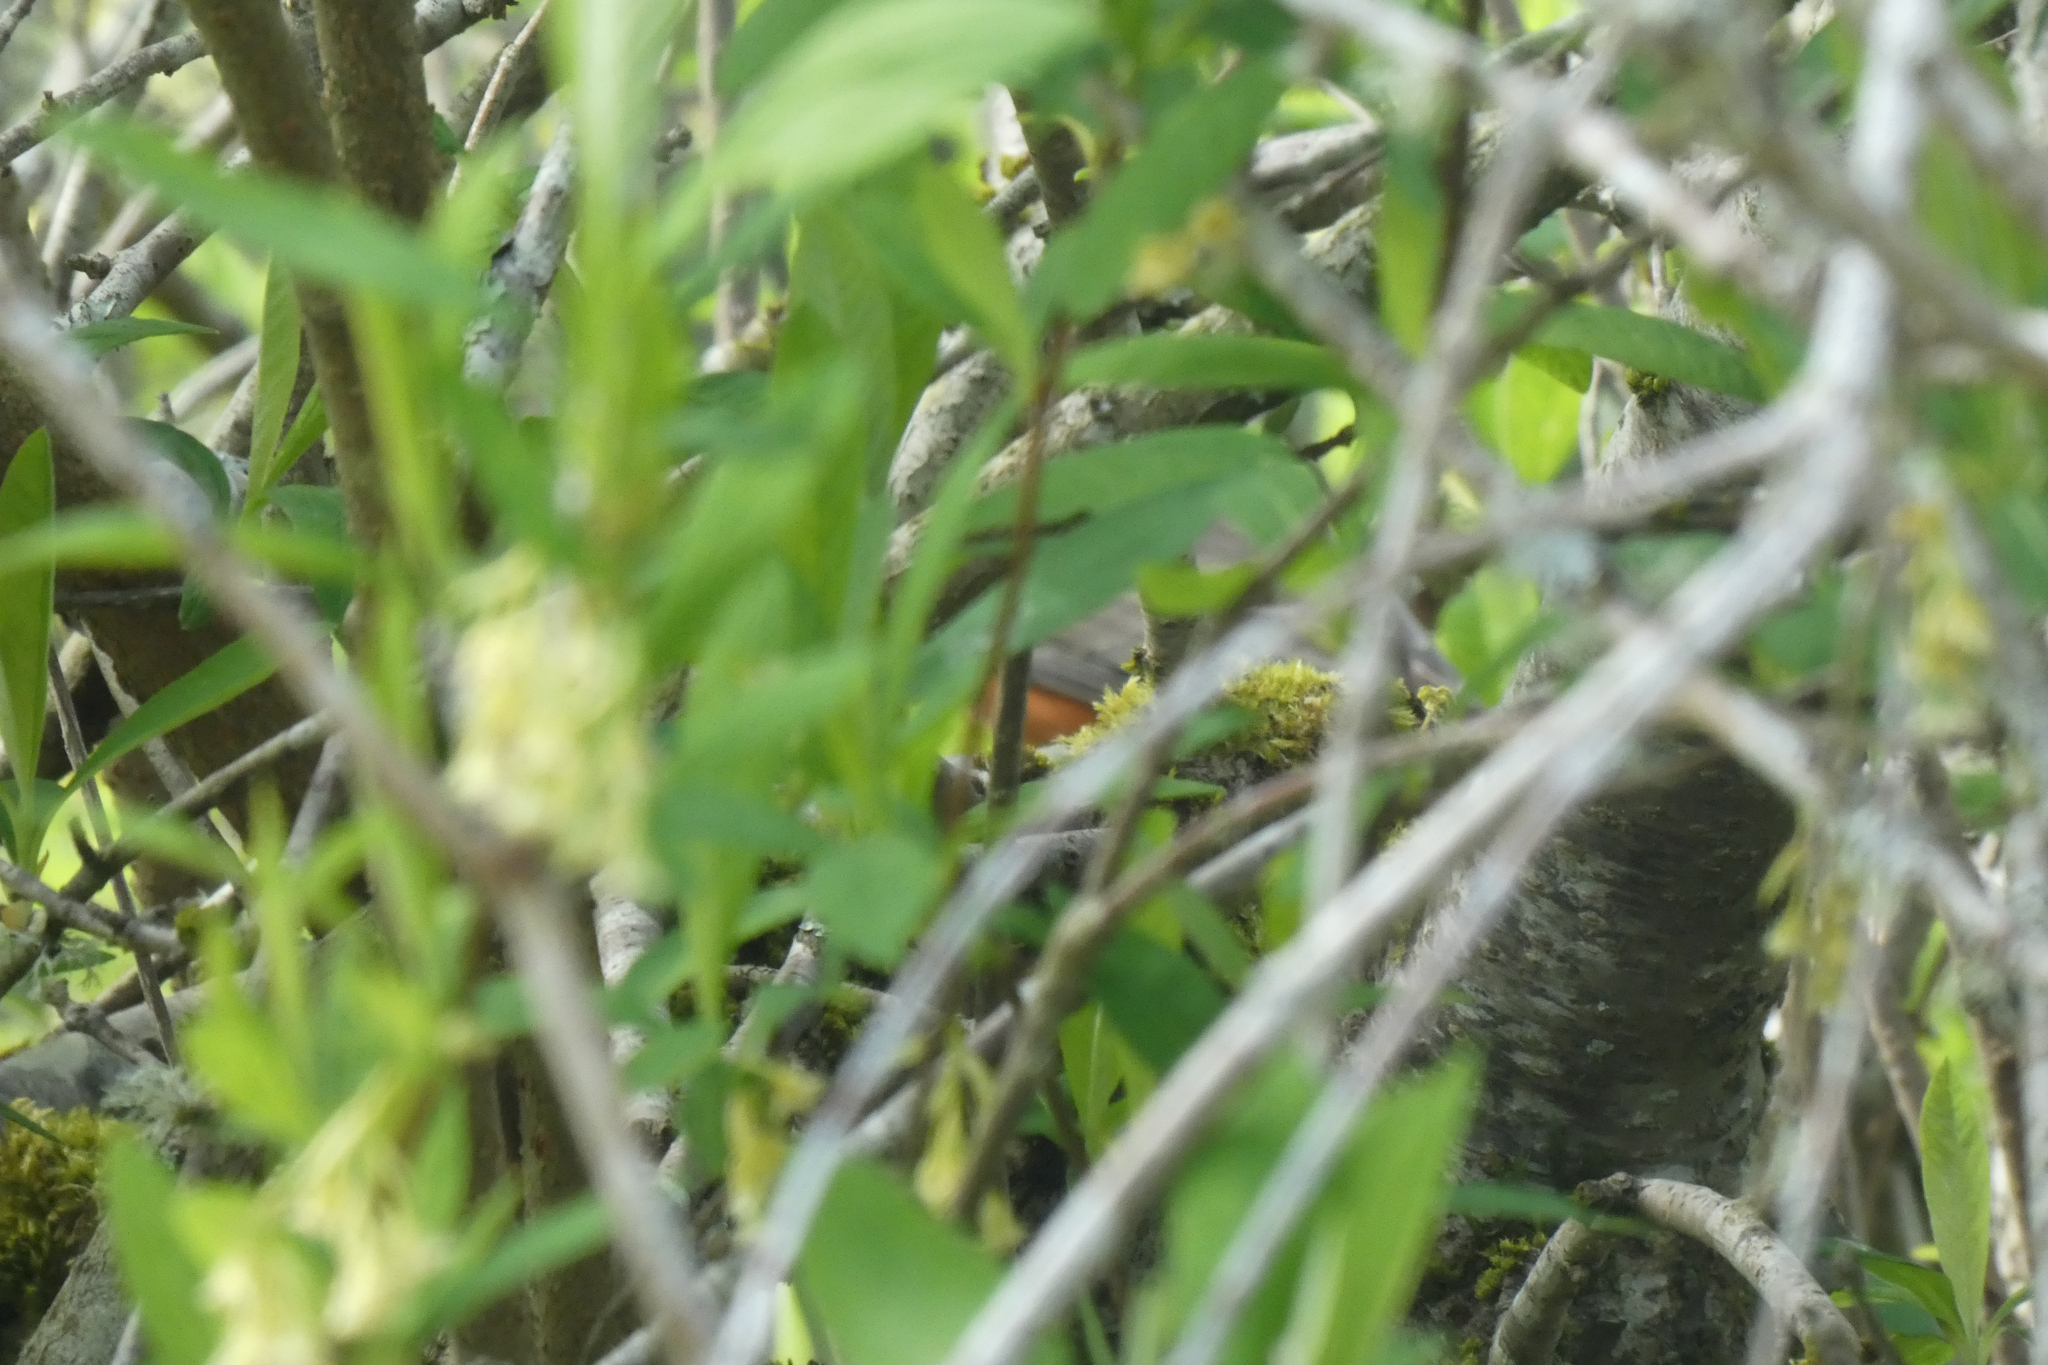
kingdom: Animalia
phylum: Chordata
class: Aves
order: Passeriformes
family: Turdidae
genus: Turdus
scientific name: Turdus migratorius
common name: American robin
